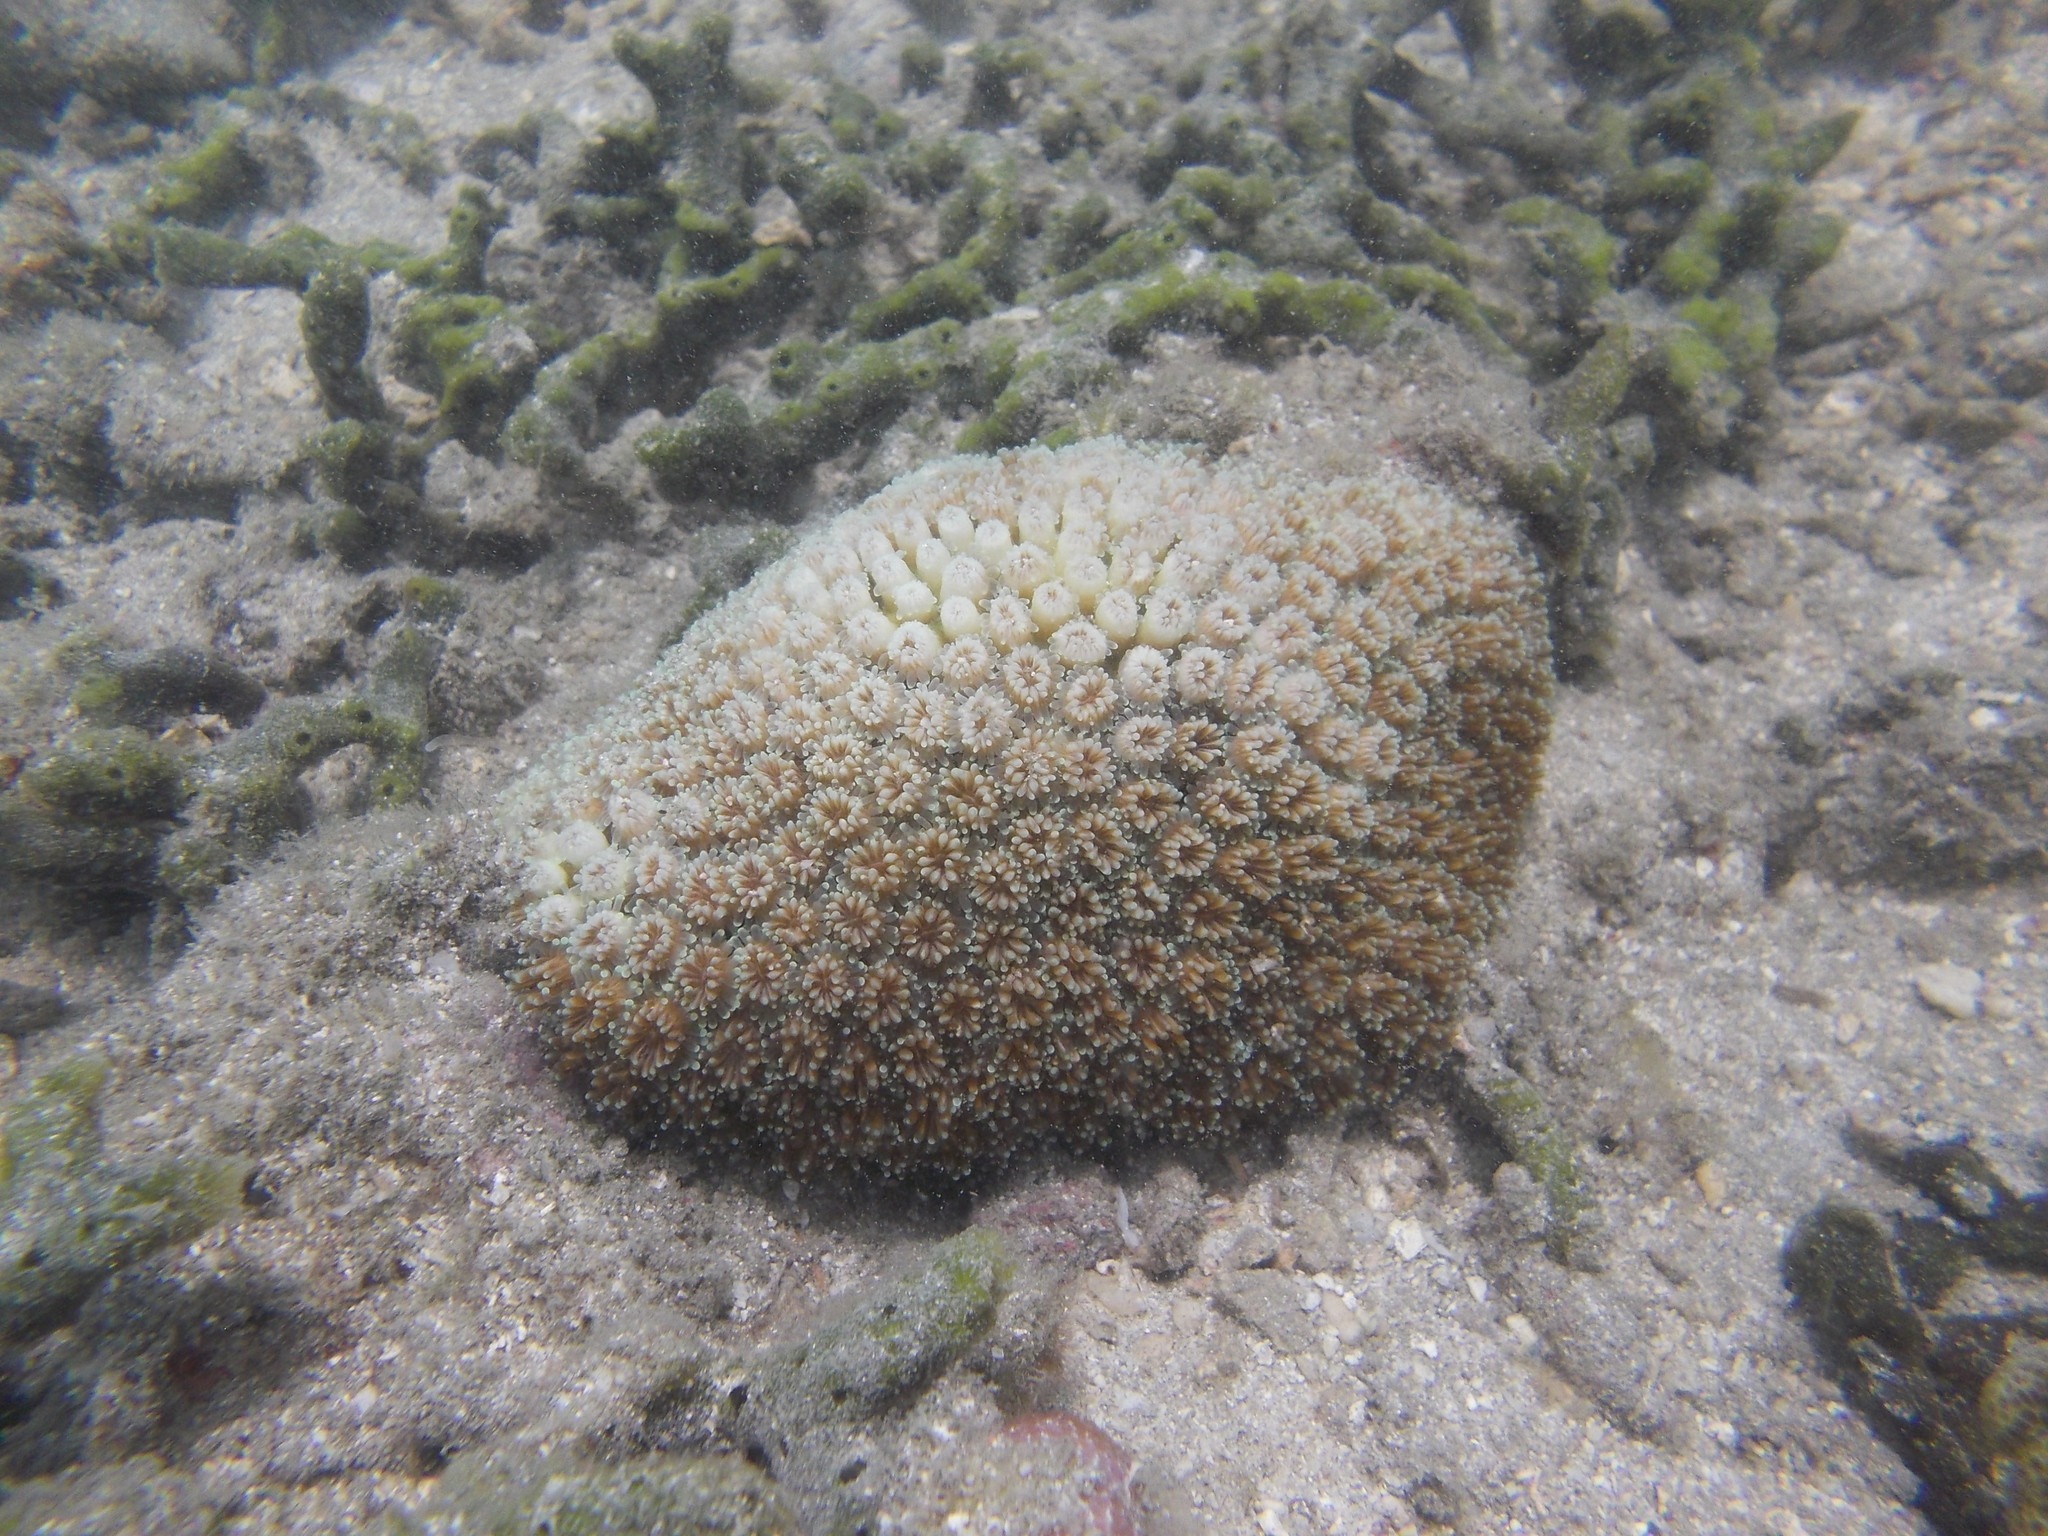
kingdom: Animalia
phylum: Cnidaria
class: Anthozoa
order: Scleractinia
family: Euphylliidae
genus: Galaxea
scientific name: Galaxea fascicularis
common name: Octopus coral
